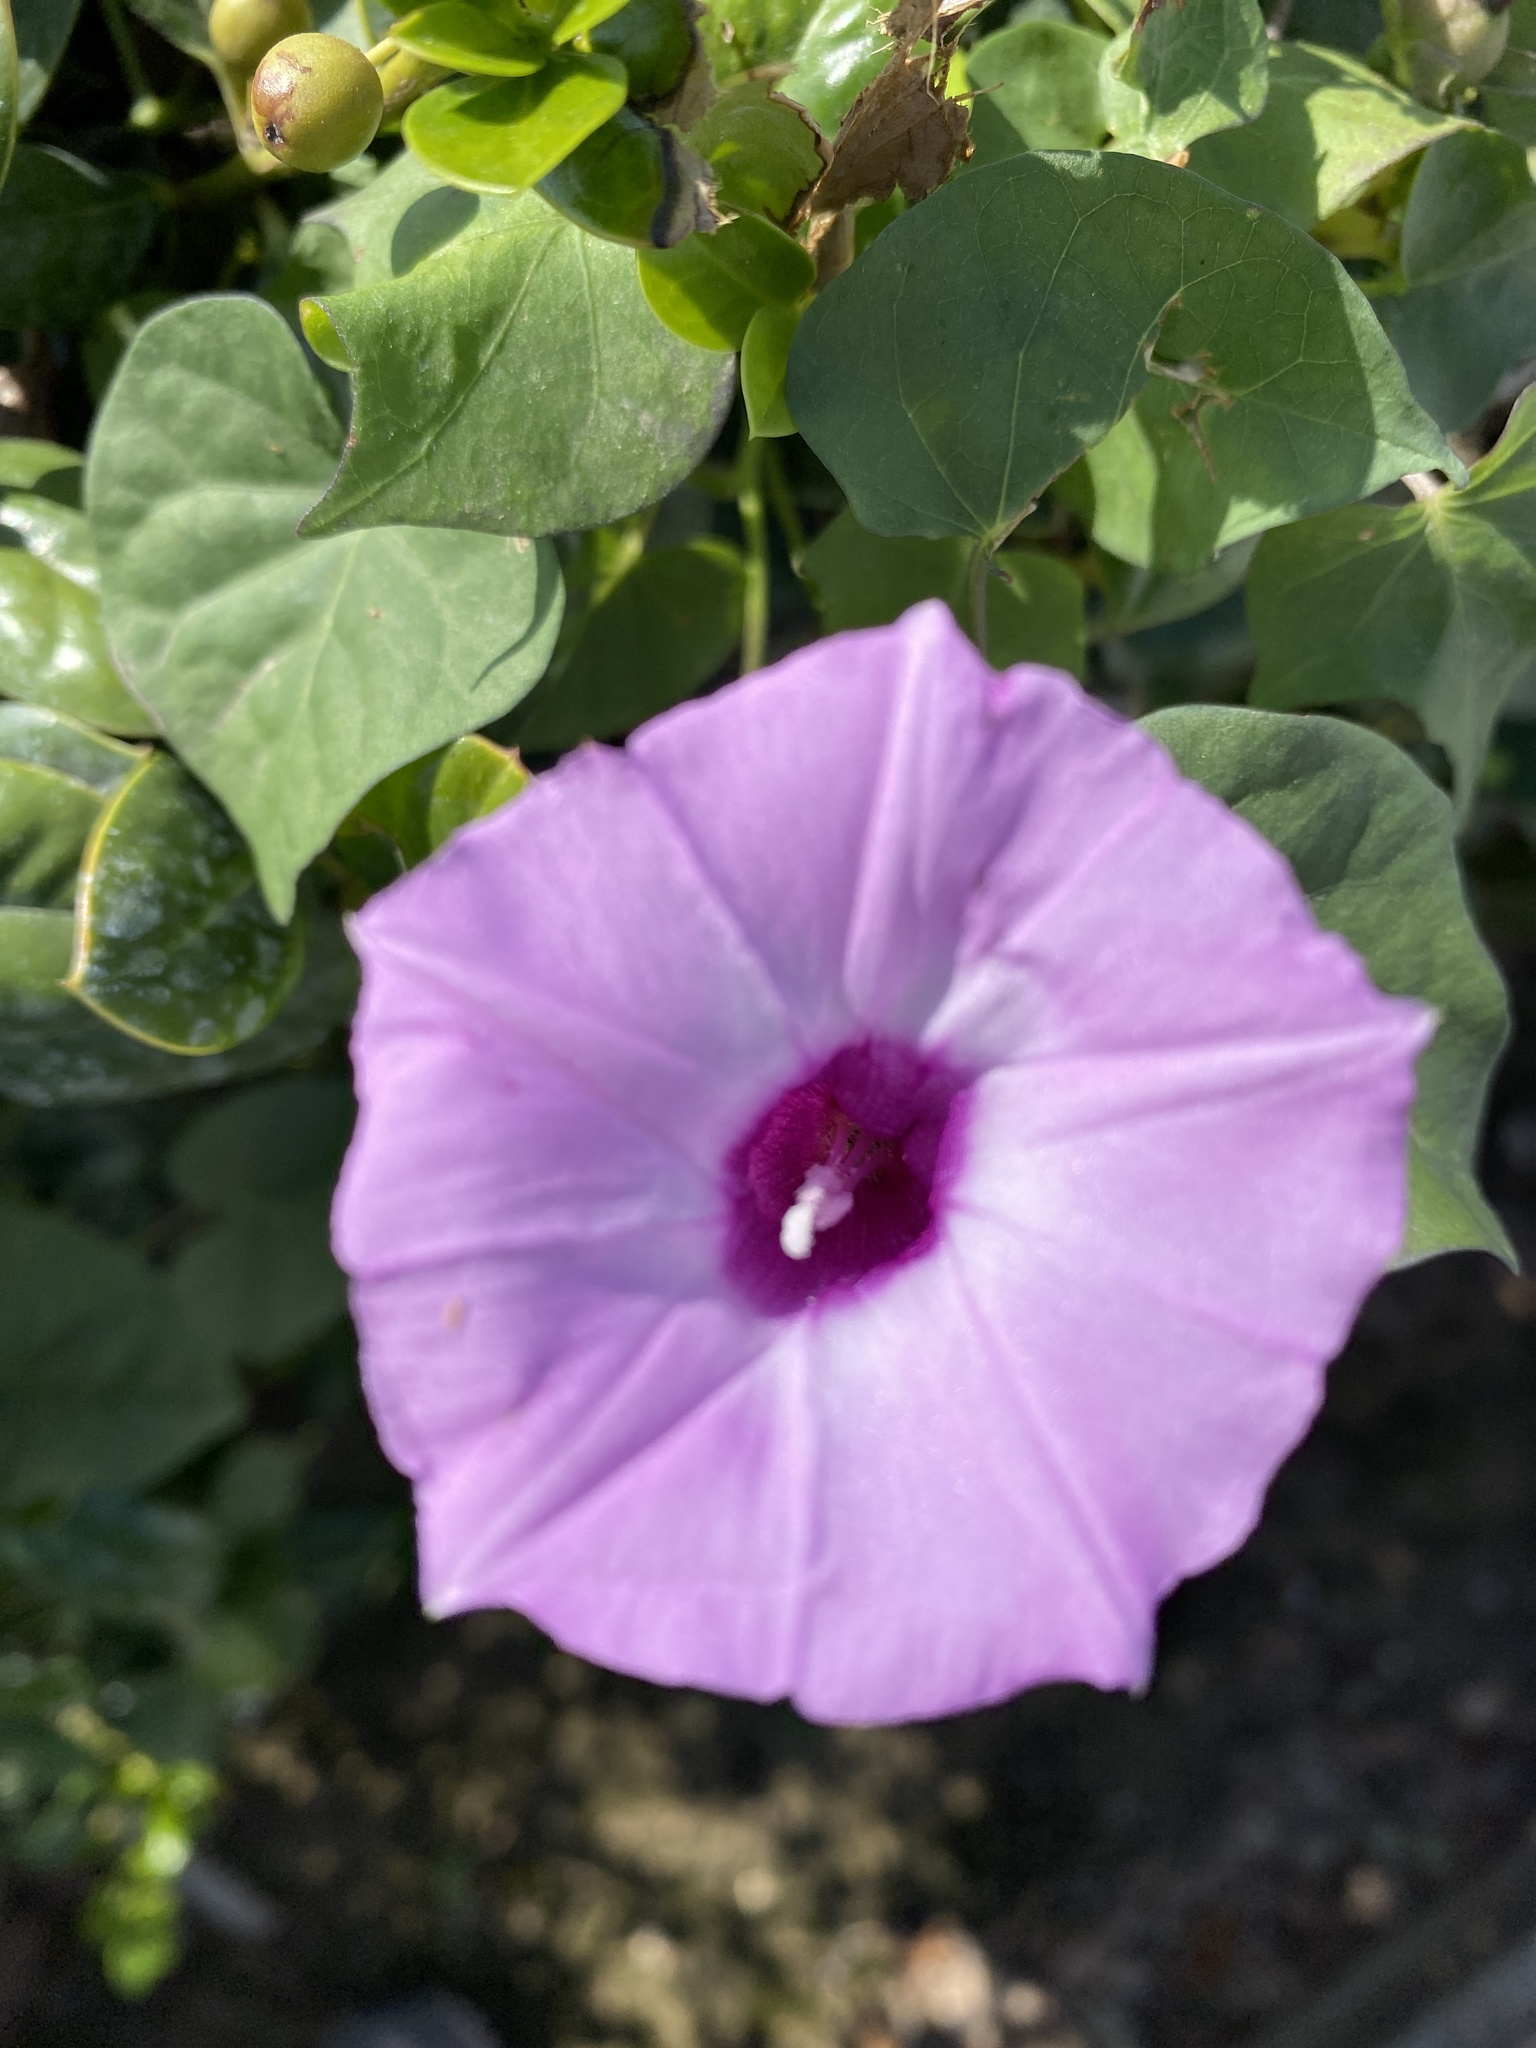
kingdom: Plantae
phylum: Tracheophyta
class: Magnoliopsida
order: Solanales
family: Convolvulaceae
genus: Ipomoea
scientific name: Ipomoea cordatotriloba
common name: Cotton morning glory
